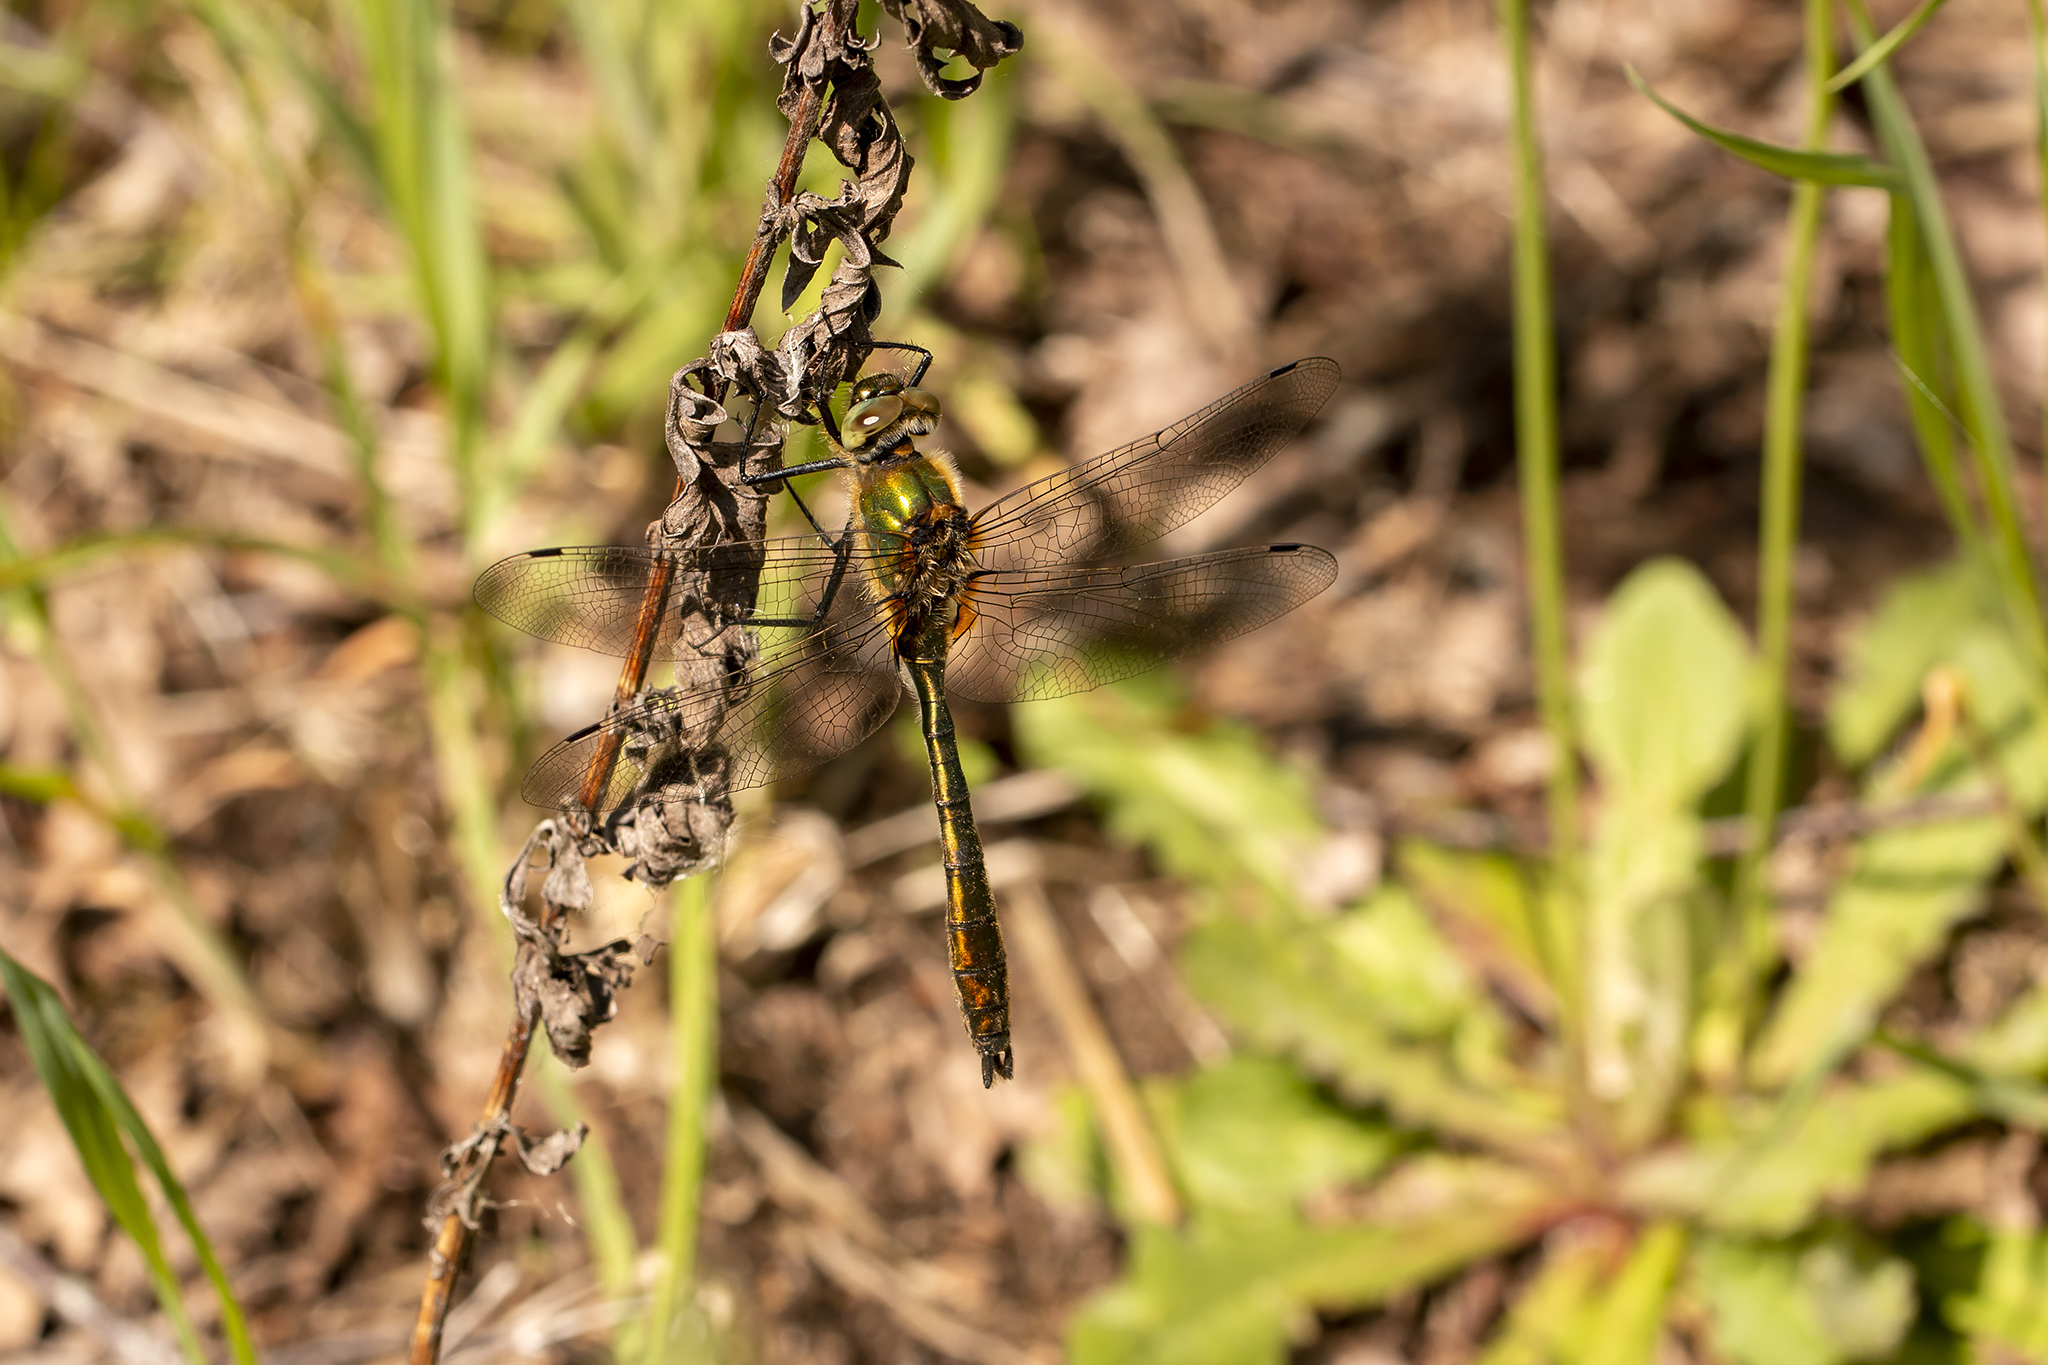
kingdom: Animalia
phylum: Arthropoda
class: Insecta
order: Odonata
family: Corduliidae
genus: Cordulia
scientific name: Cordulia aenea
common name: Downy emerald
